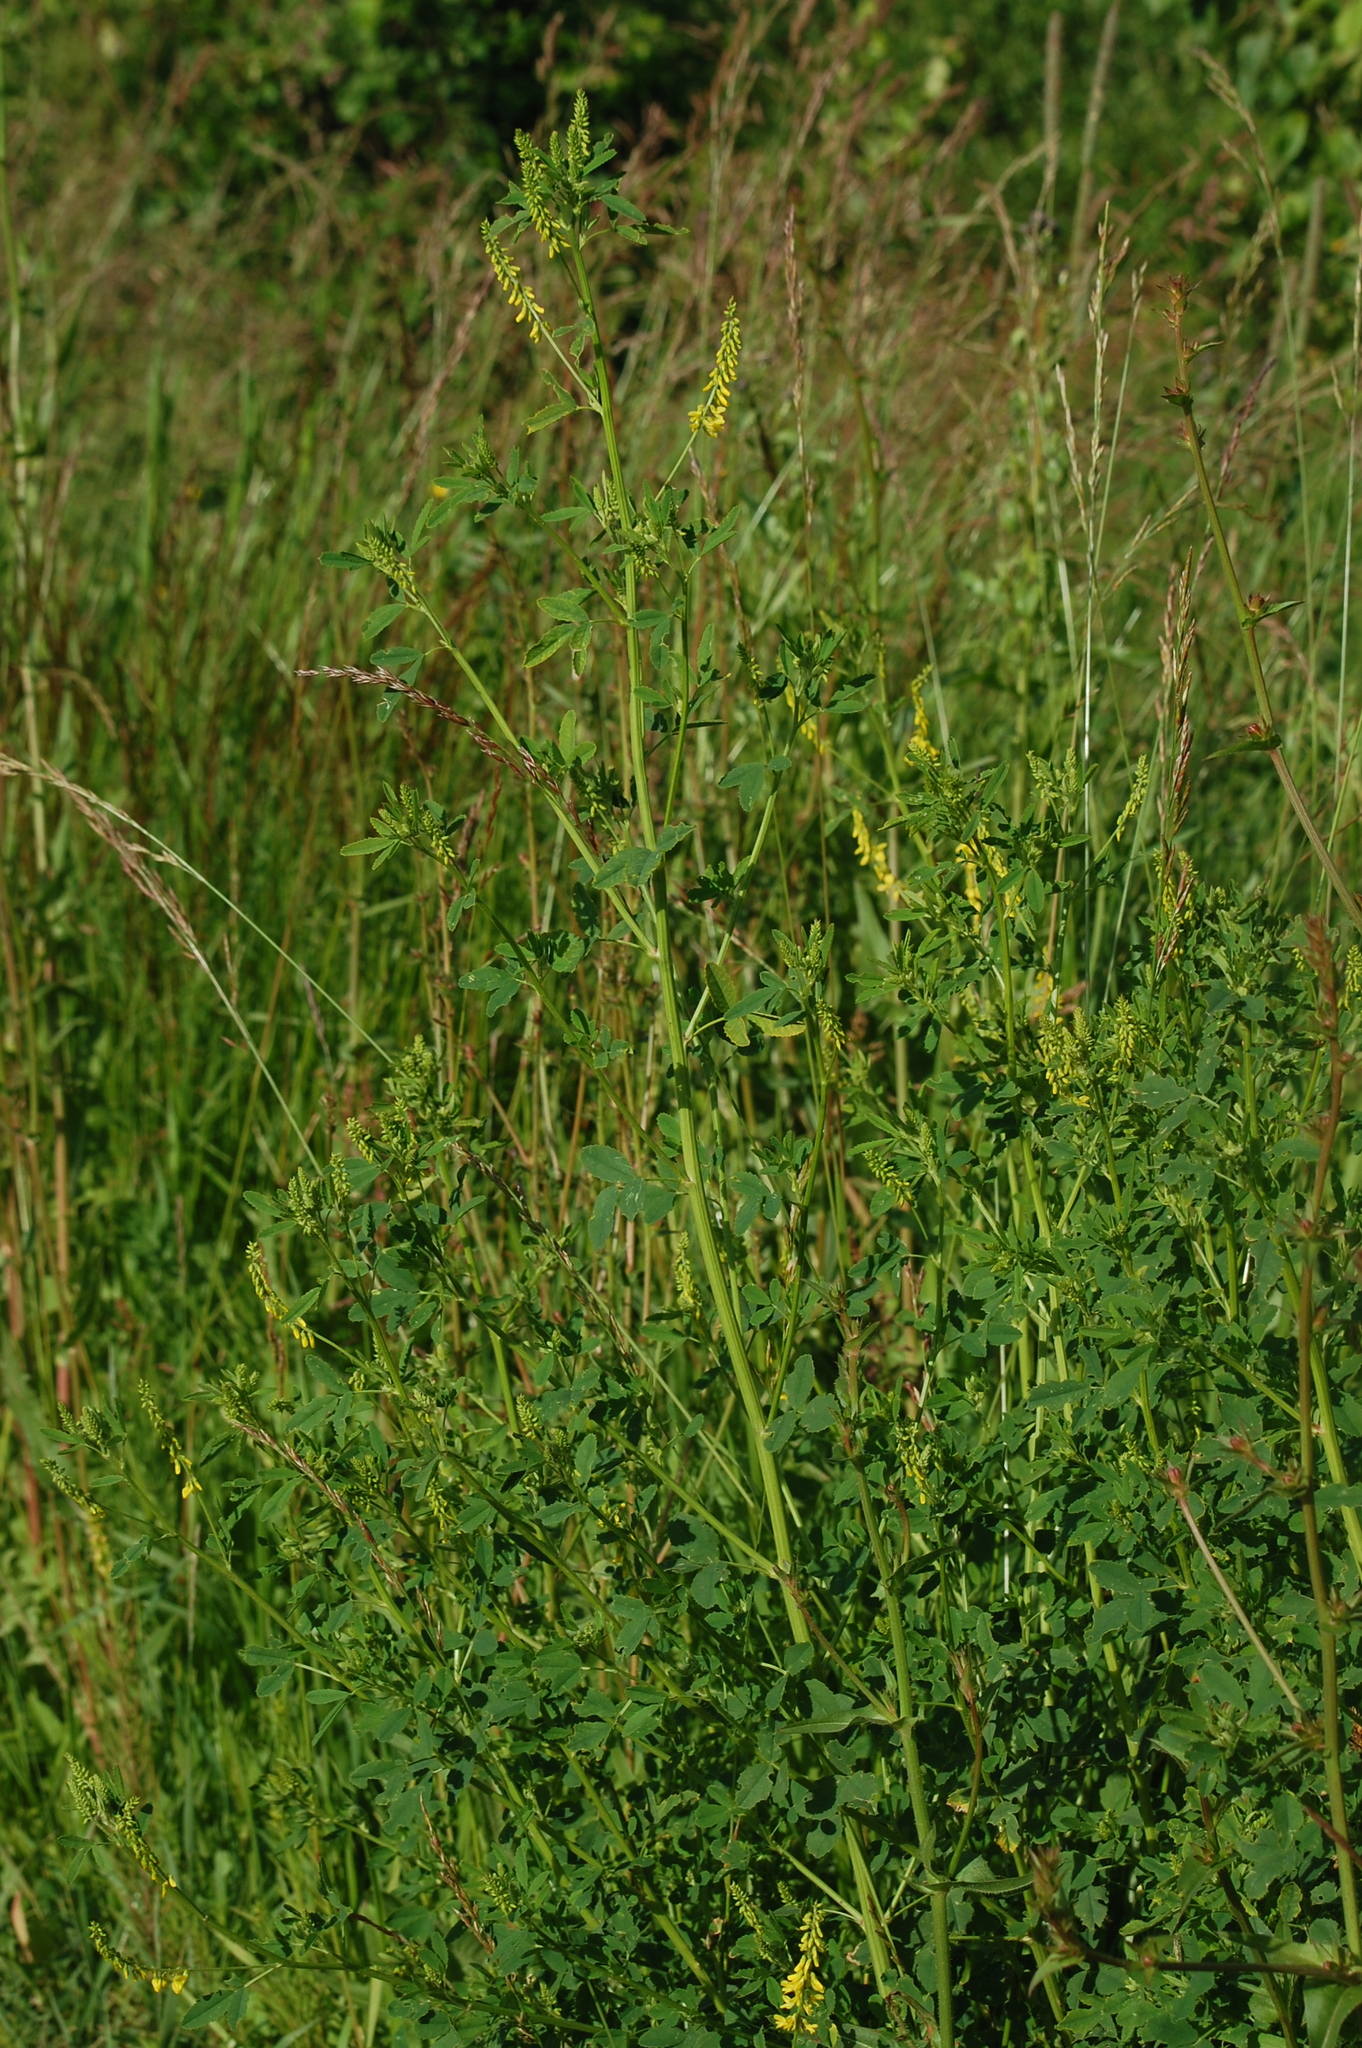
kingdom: Plantae
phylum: Tracheophyta
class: Magnoliopsida
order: Fabales
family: Fabaceae
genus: Melilotus
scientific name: Melilotus officinalis
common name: Sweetclover
